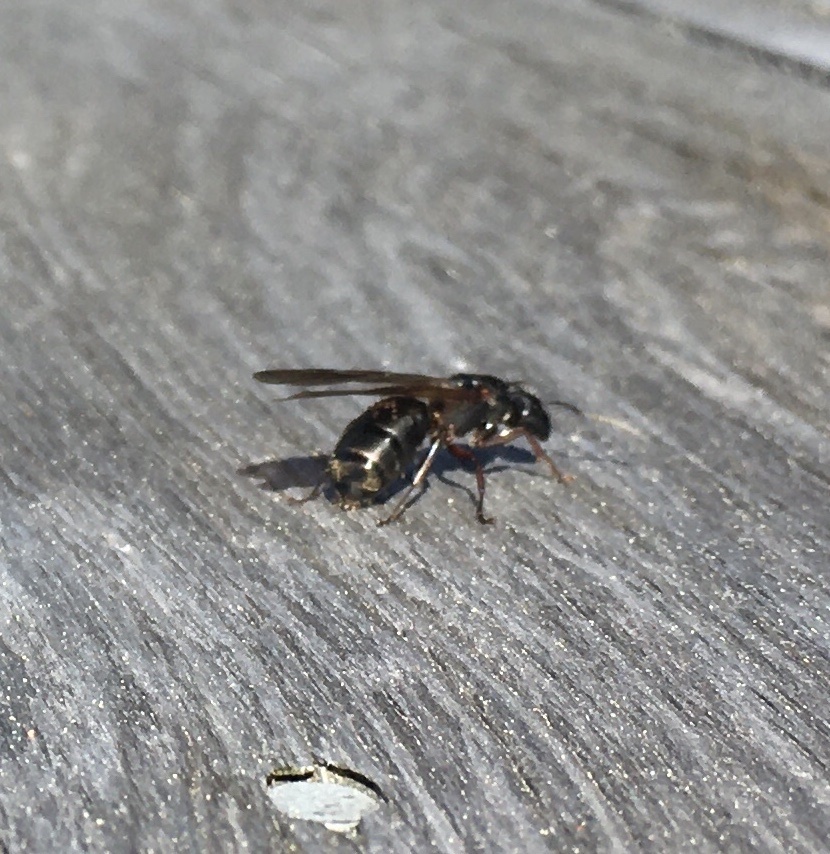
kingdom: Animalia
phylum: Arthropoda
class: Insecta
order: Hymenoptera
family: Formicidae
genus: Camponotus
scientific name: Camponotus modoc
